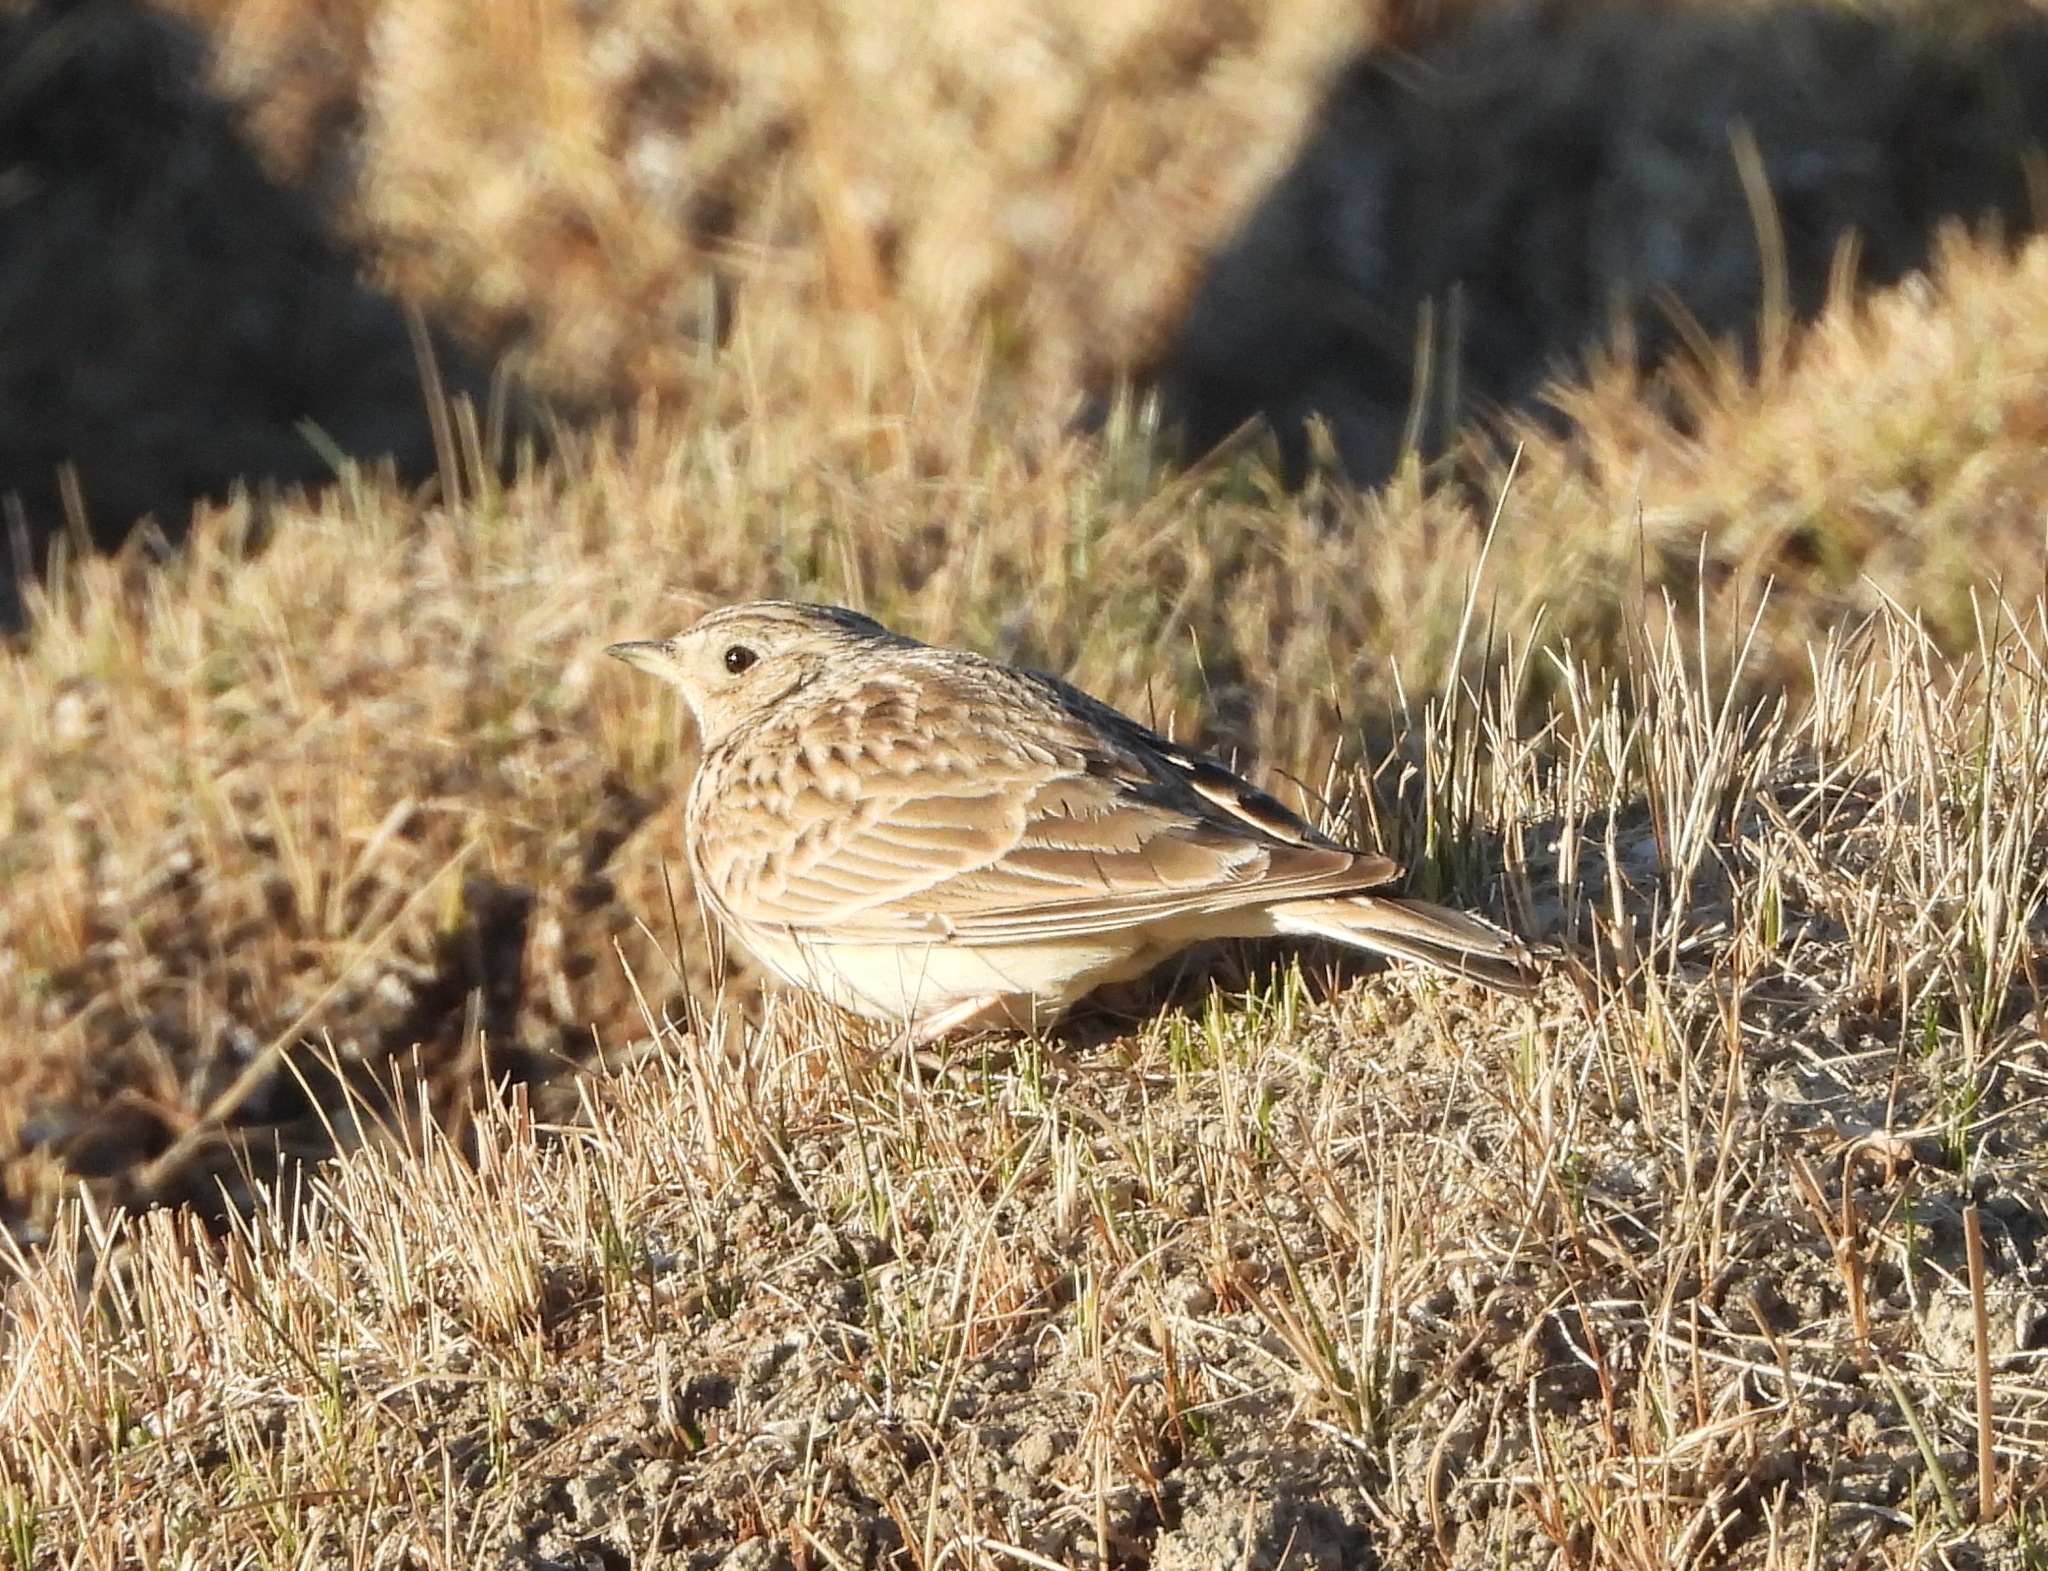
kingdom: Animalia
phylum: Chordata
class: Aves
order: Passeriformes
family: Alaudidae
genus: Alauda
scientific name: Alauda arvensis
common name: Eurasian skylark
